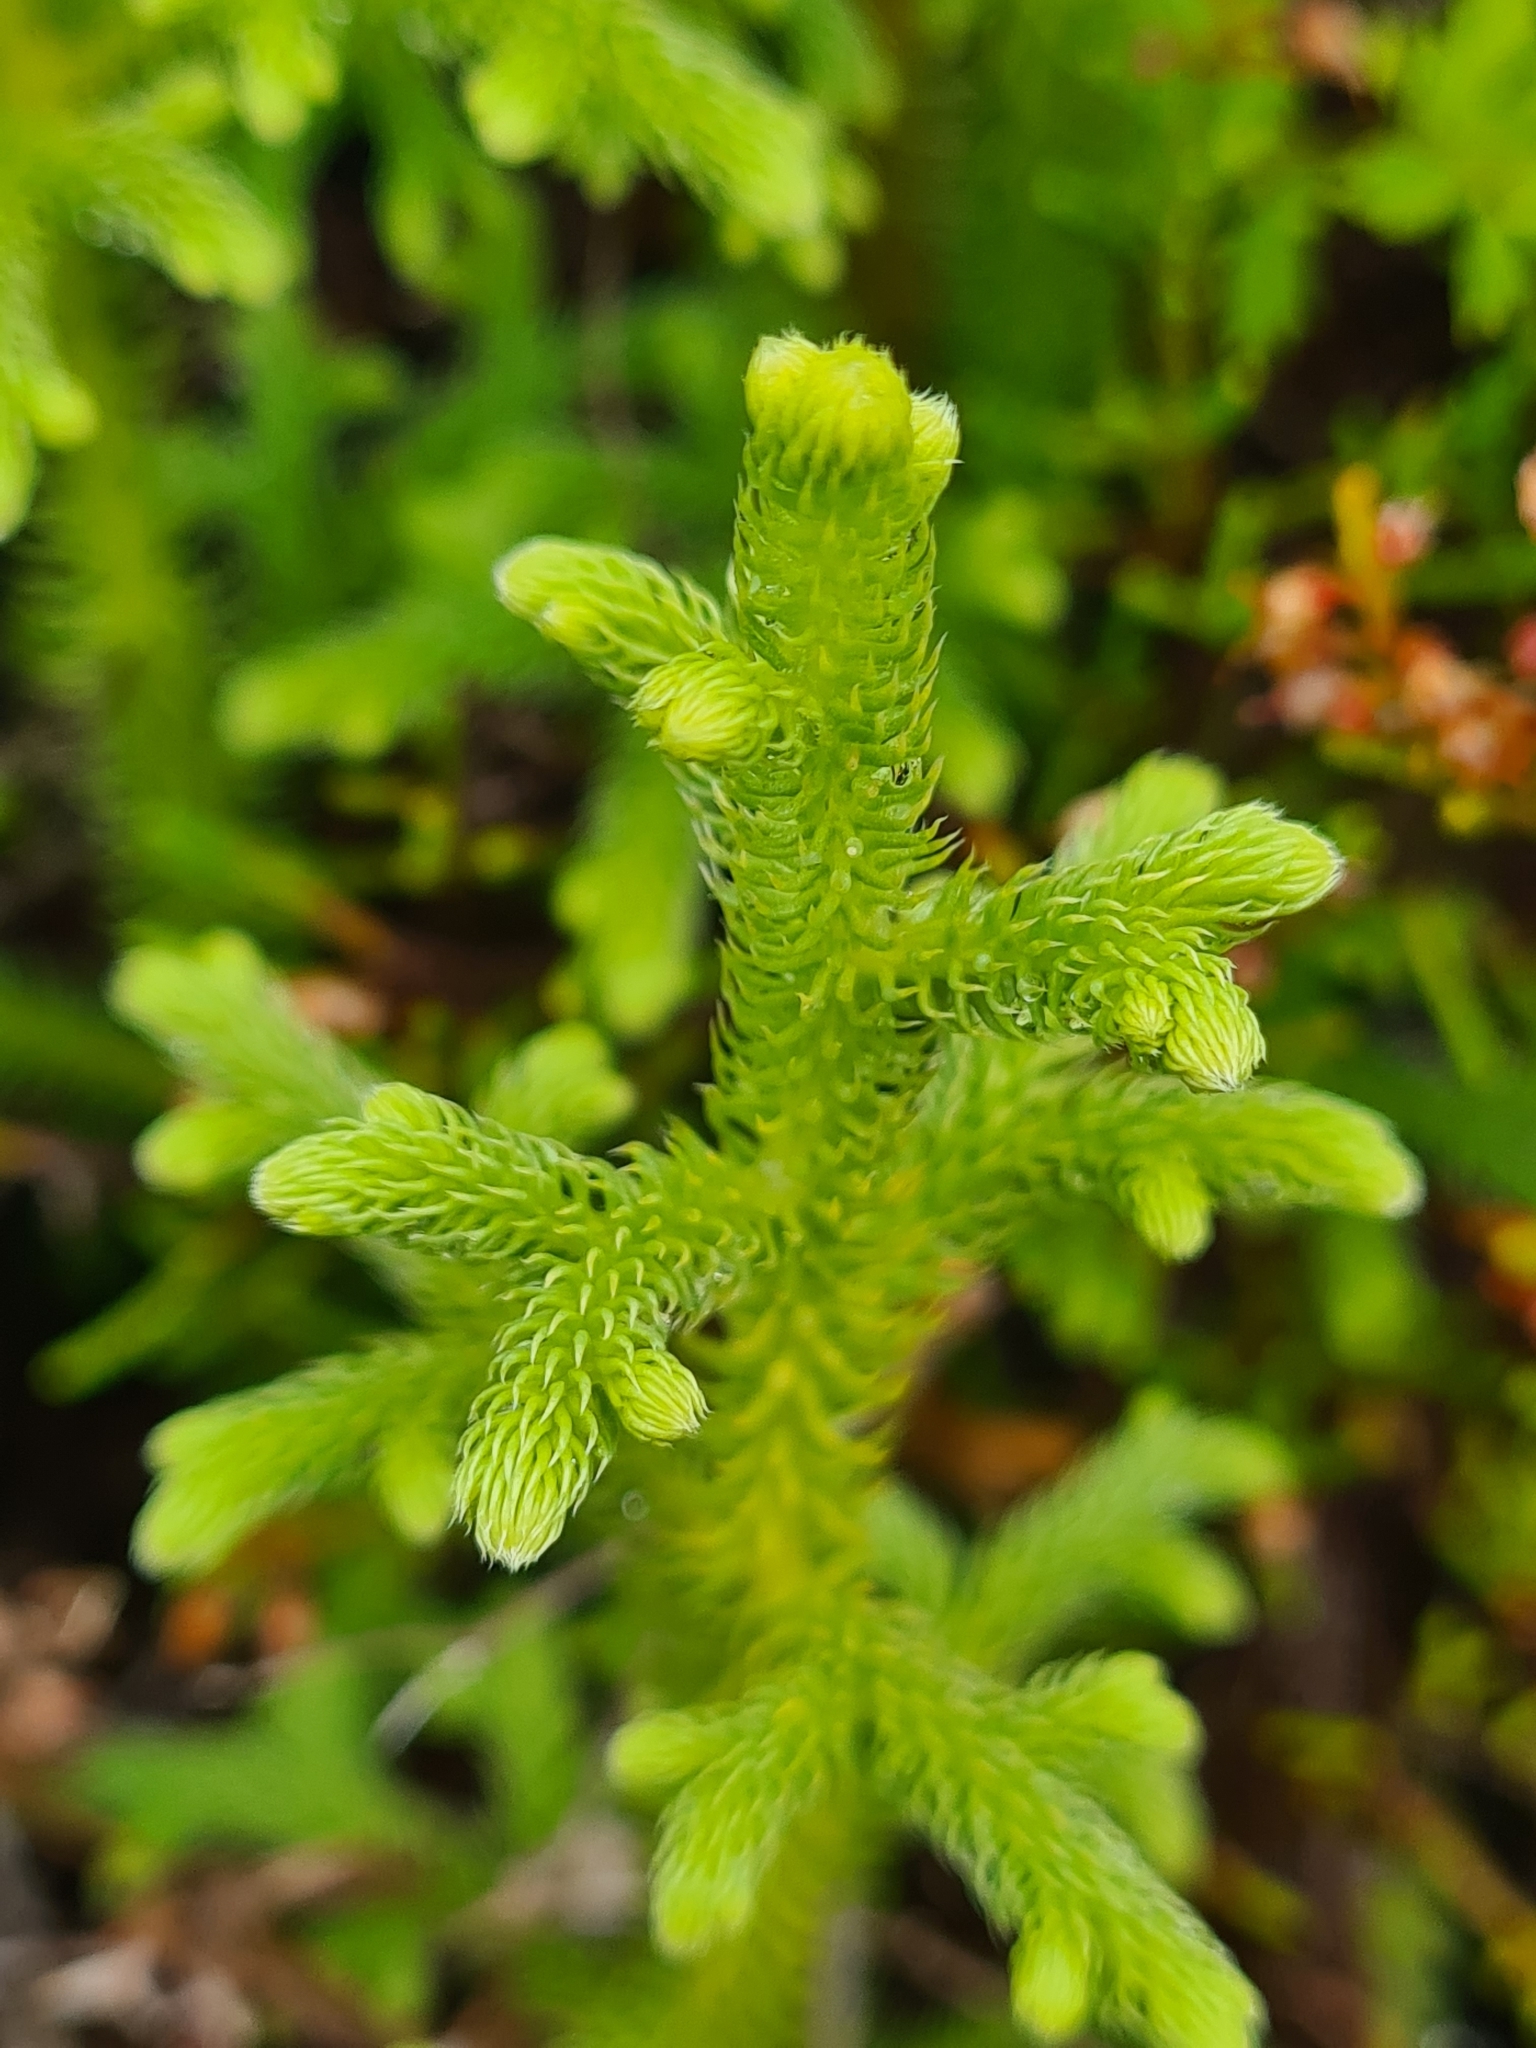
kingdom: Plantae
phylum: Tracheophyta
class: Lycopodiopsida
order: Lycopodiales
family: Lycopodiaceae
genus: Palhinhaea
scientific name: Palhinhaea cernua
